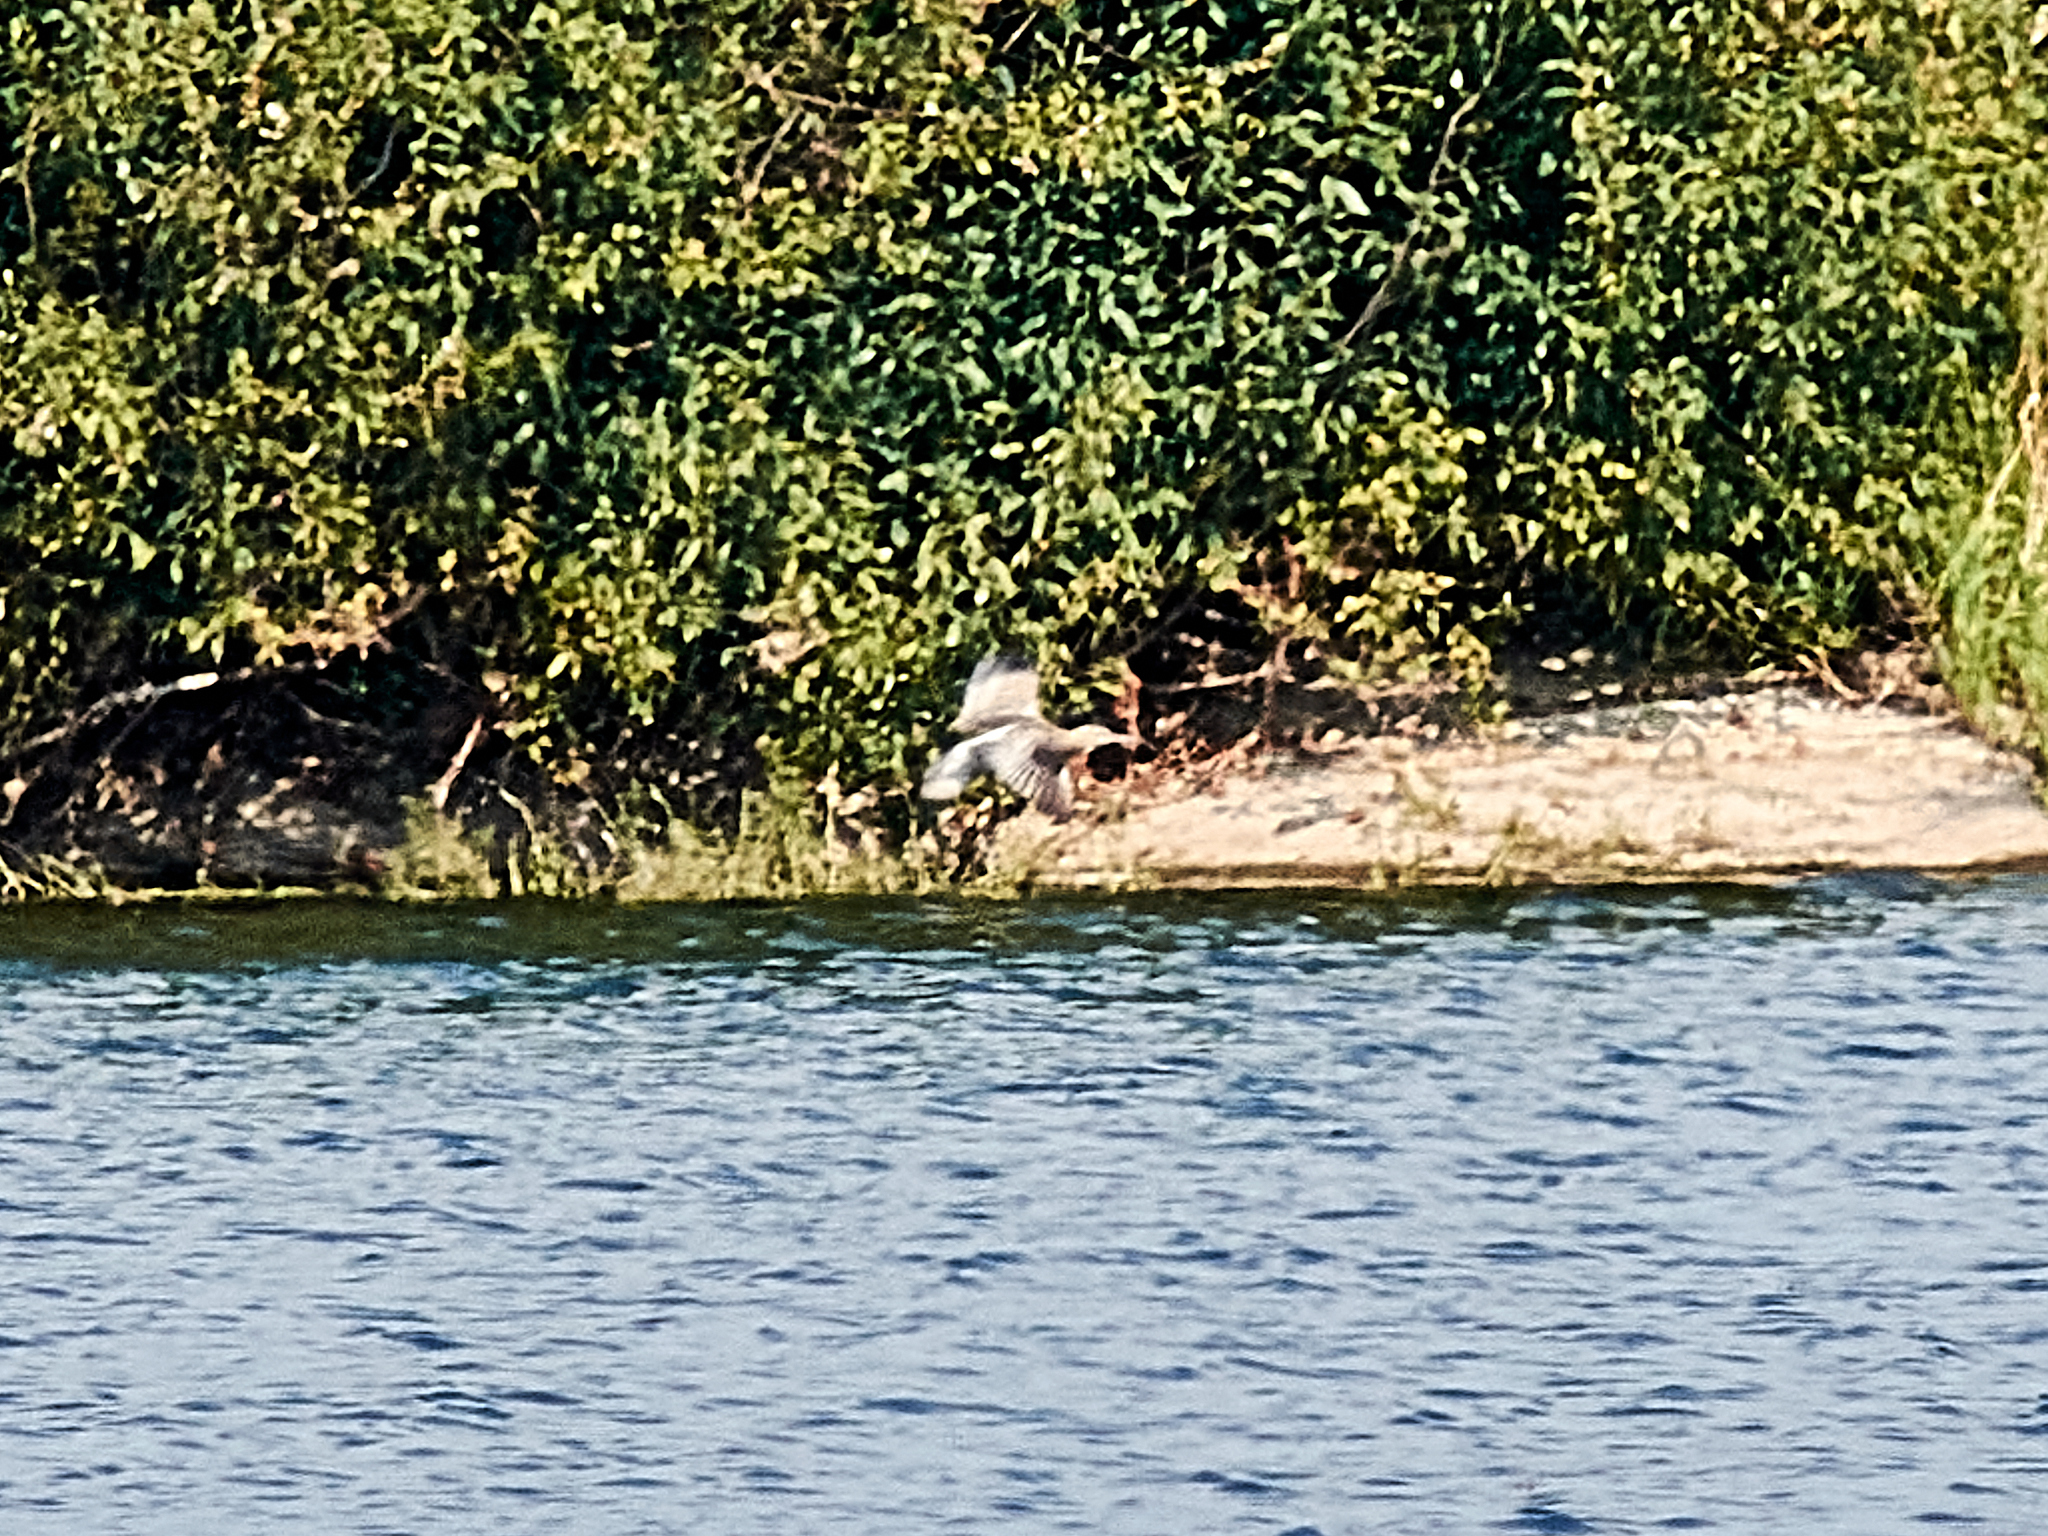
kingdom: Animalia
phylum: Chordata
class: Aves
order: Pelecaniformes
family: Ardeidae
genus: Ixobrychus
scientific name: Ixobrychus minutus
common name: Little bittern
